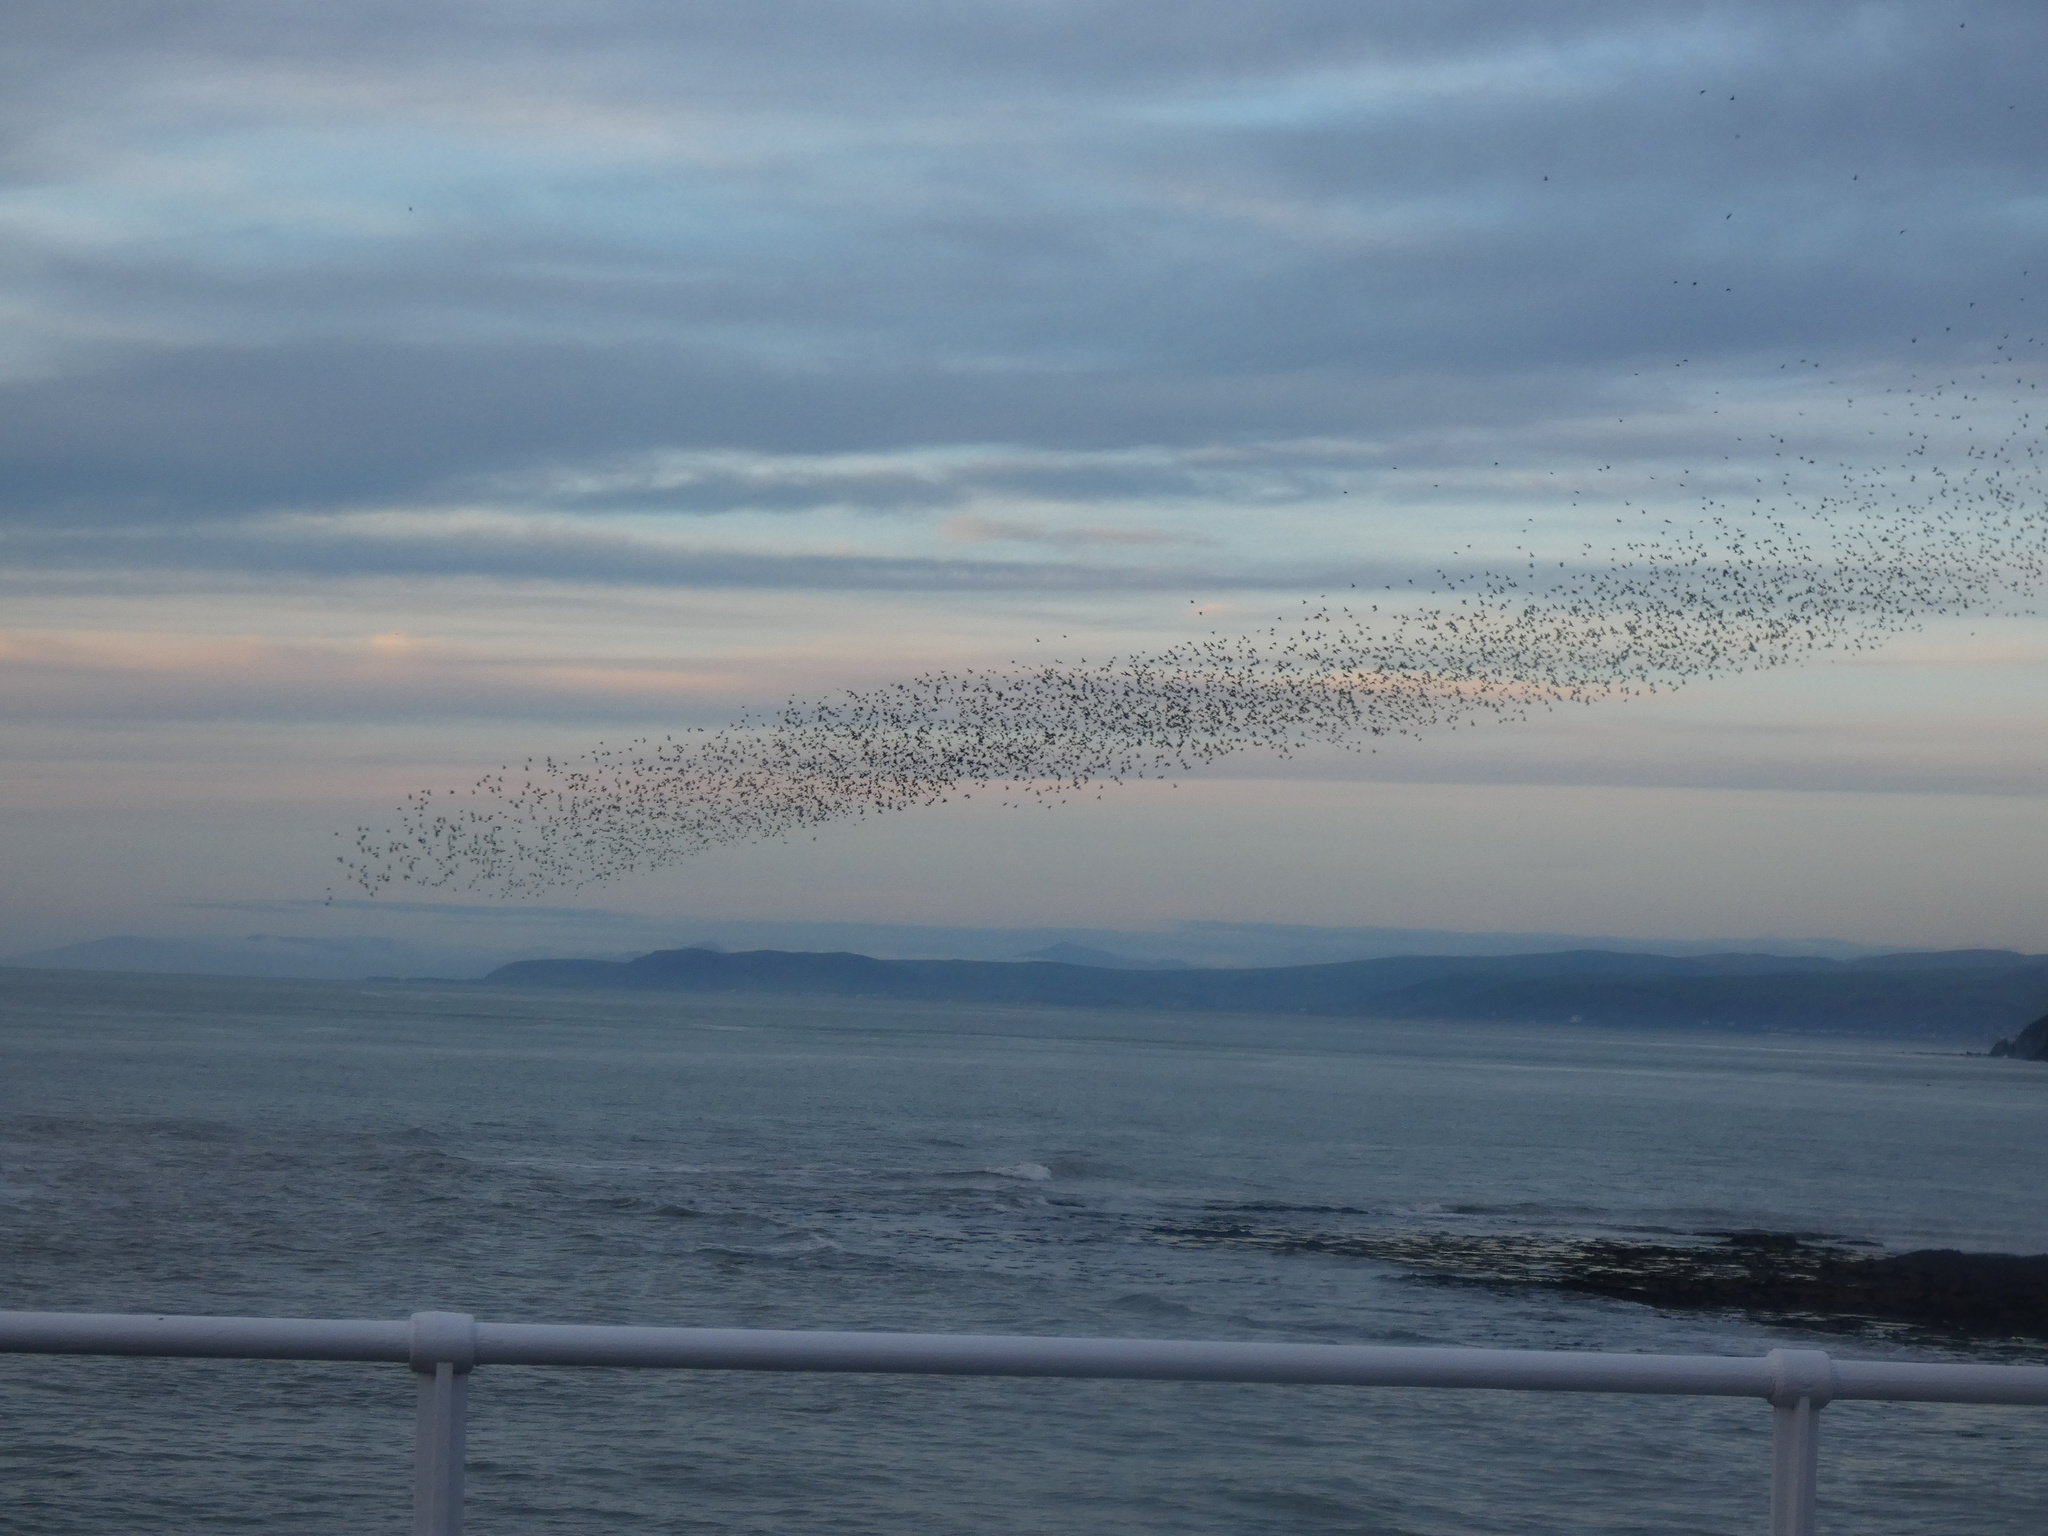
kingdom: Animalia
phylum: Chordata
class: Aves
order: Passeriformes
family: Sturnidae
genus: Sturnus
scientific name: Sturnus vulgaris
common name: Common starling
